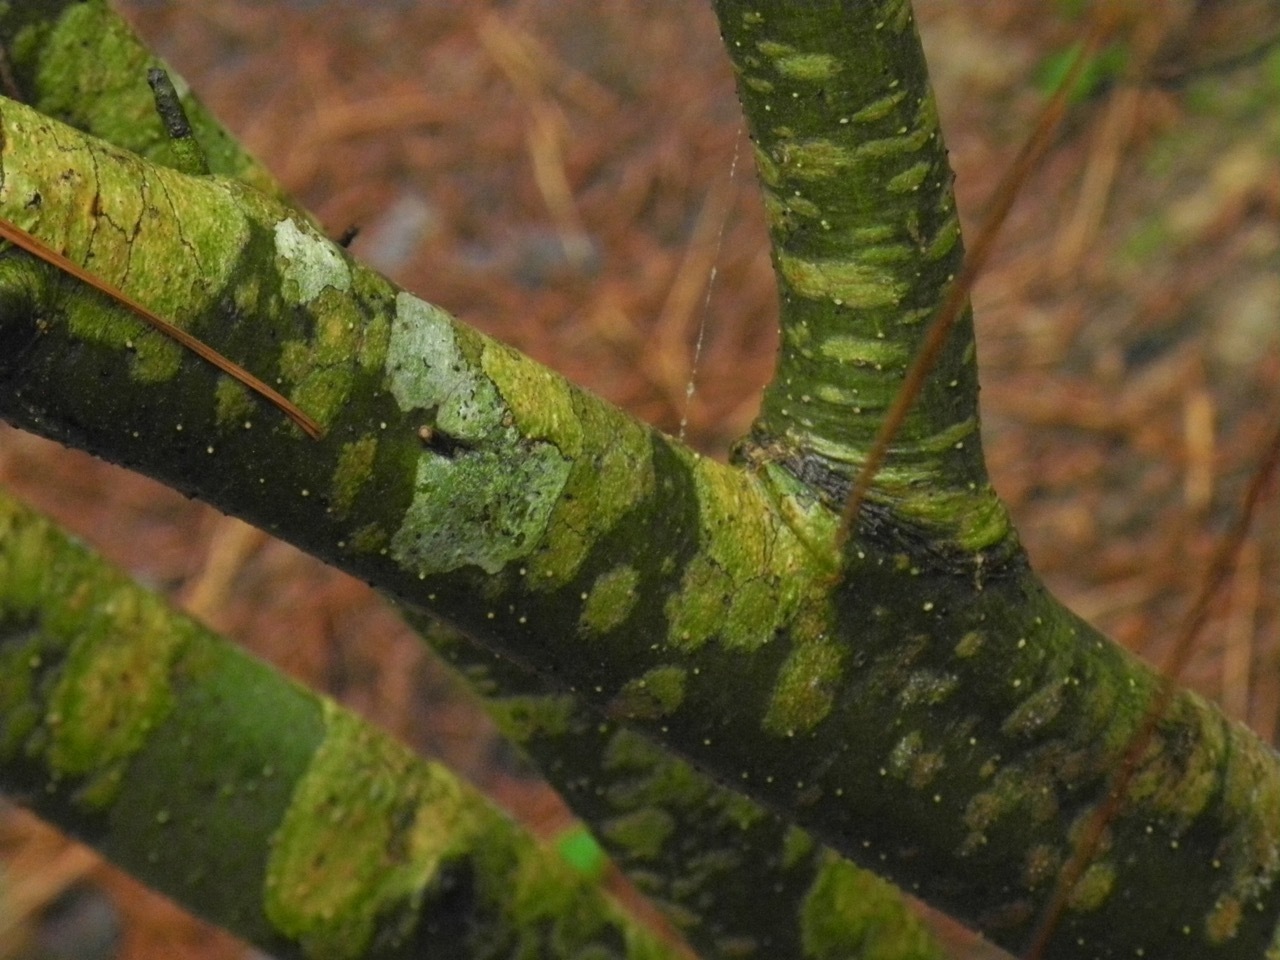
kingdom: Plantae
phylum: Tracheophyta
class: Magnoliopsida
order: Aquifoliales
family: Aquifoliaceae
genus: Ilex
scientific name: Ilex verticillata
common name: Virginia winterberry
